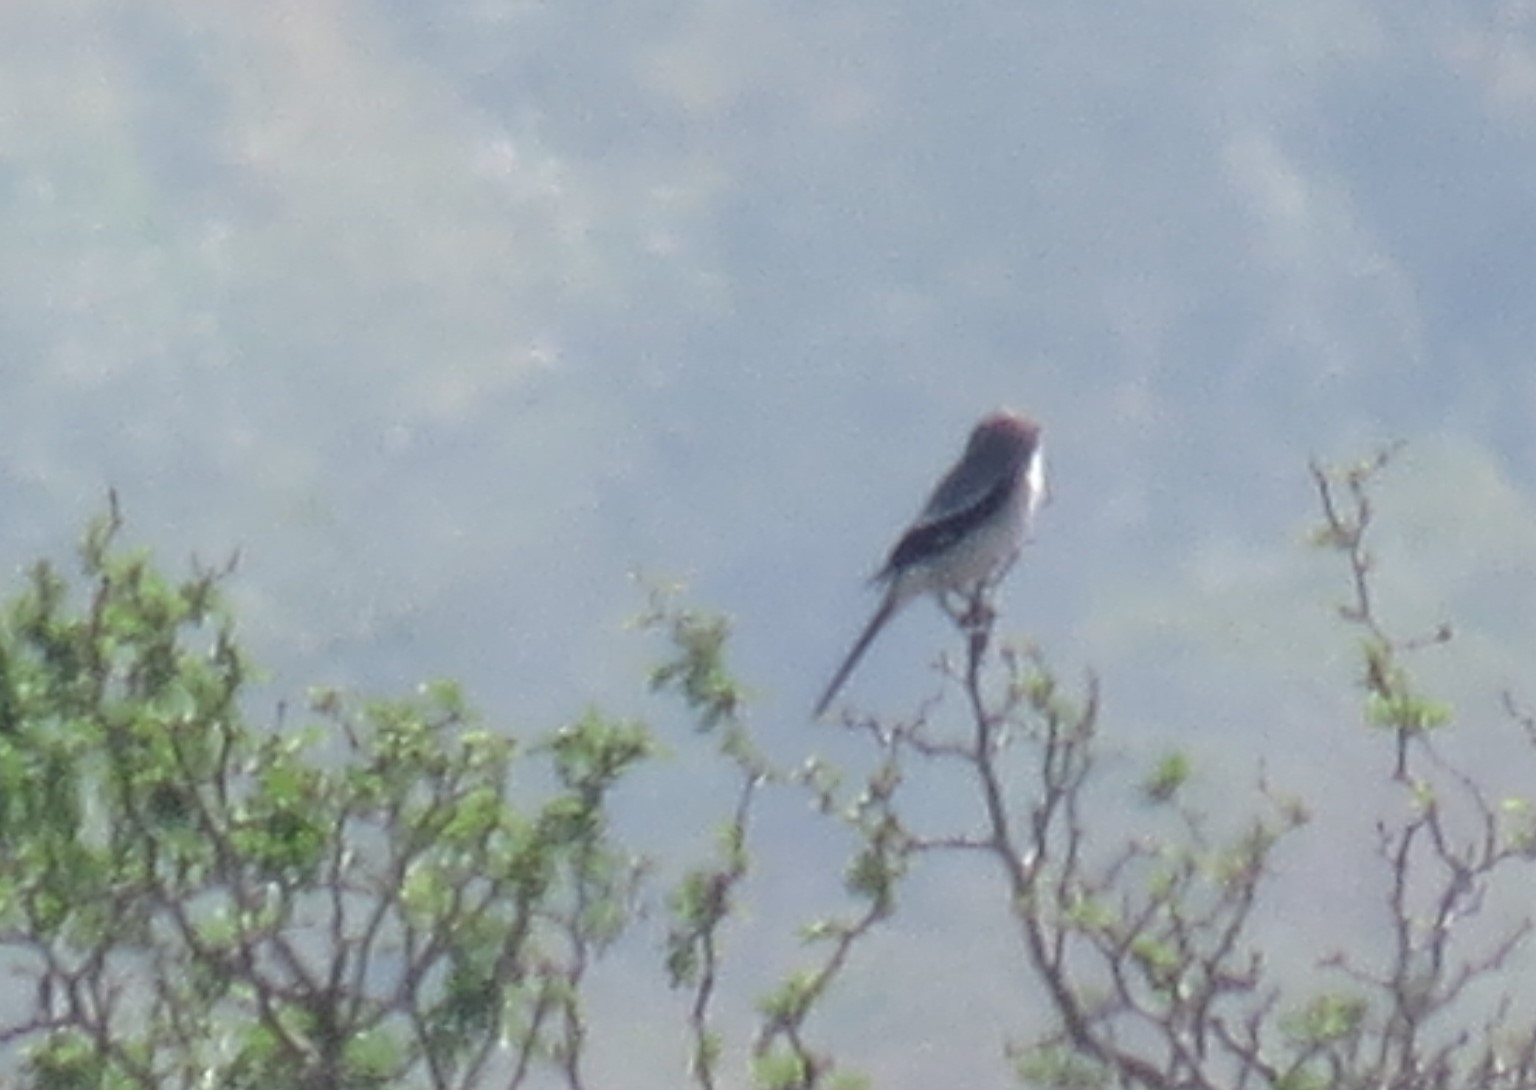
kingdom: Animalia
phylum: Chordata
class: Aves
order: Passeriformes
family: Laniidae
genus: Lanius
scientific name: Lanius ludovicianus
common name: Loggerhead shrike
